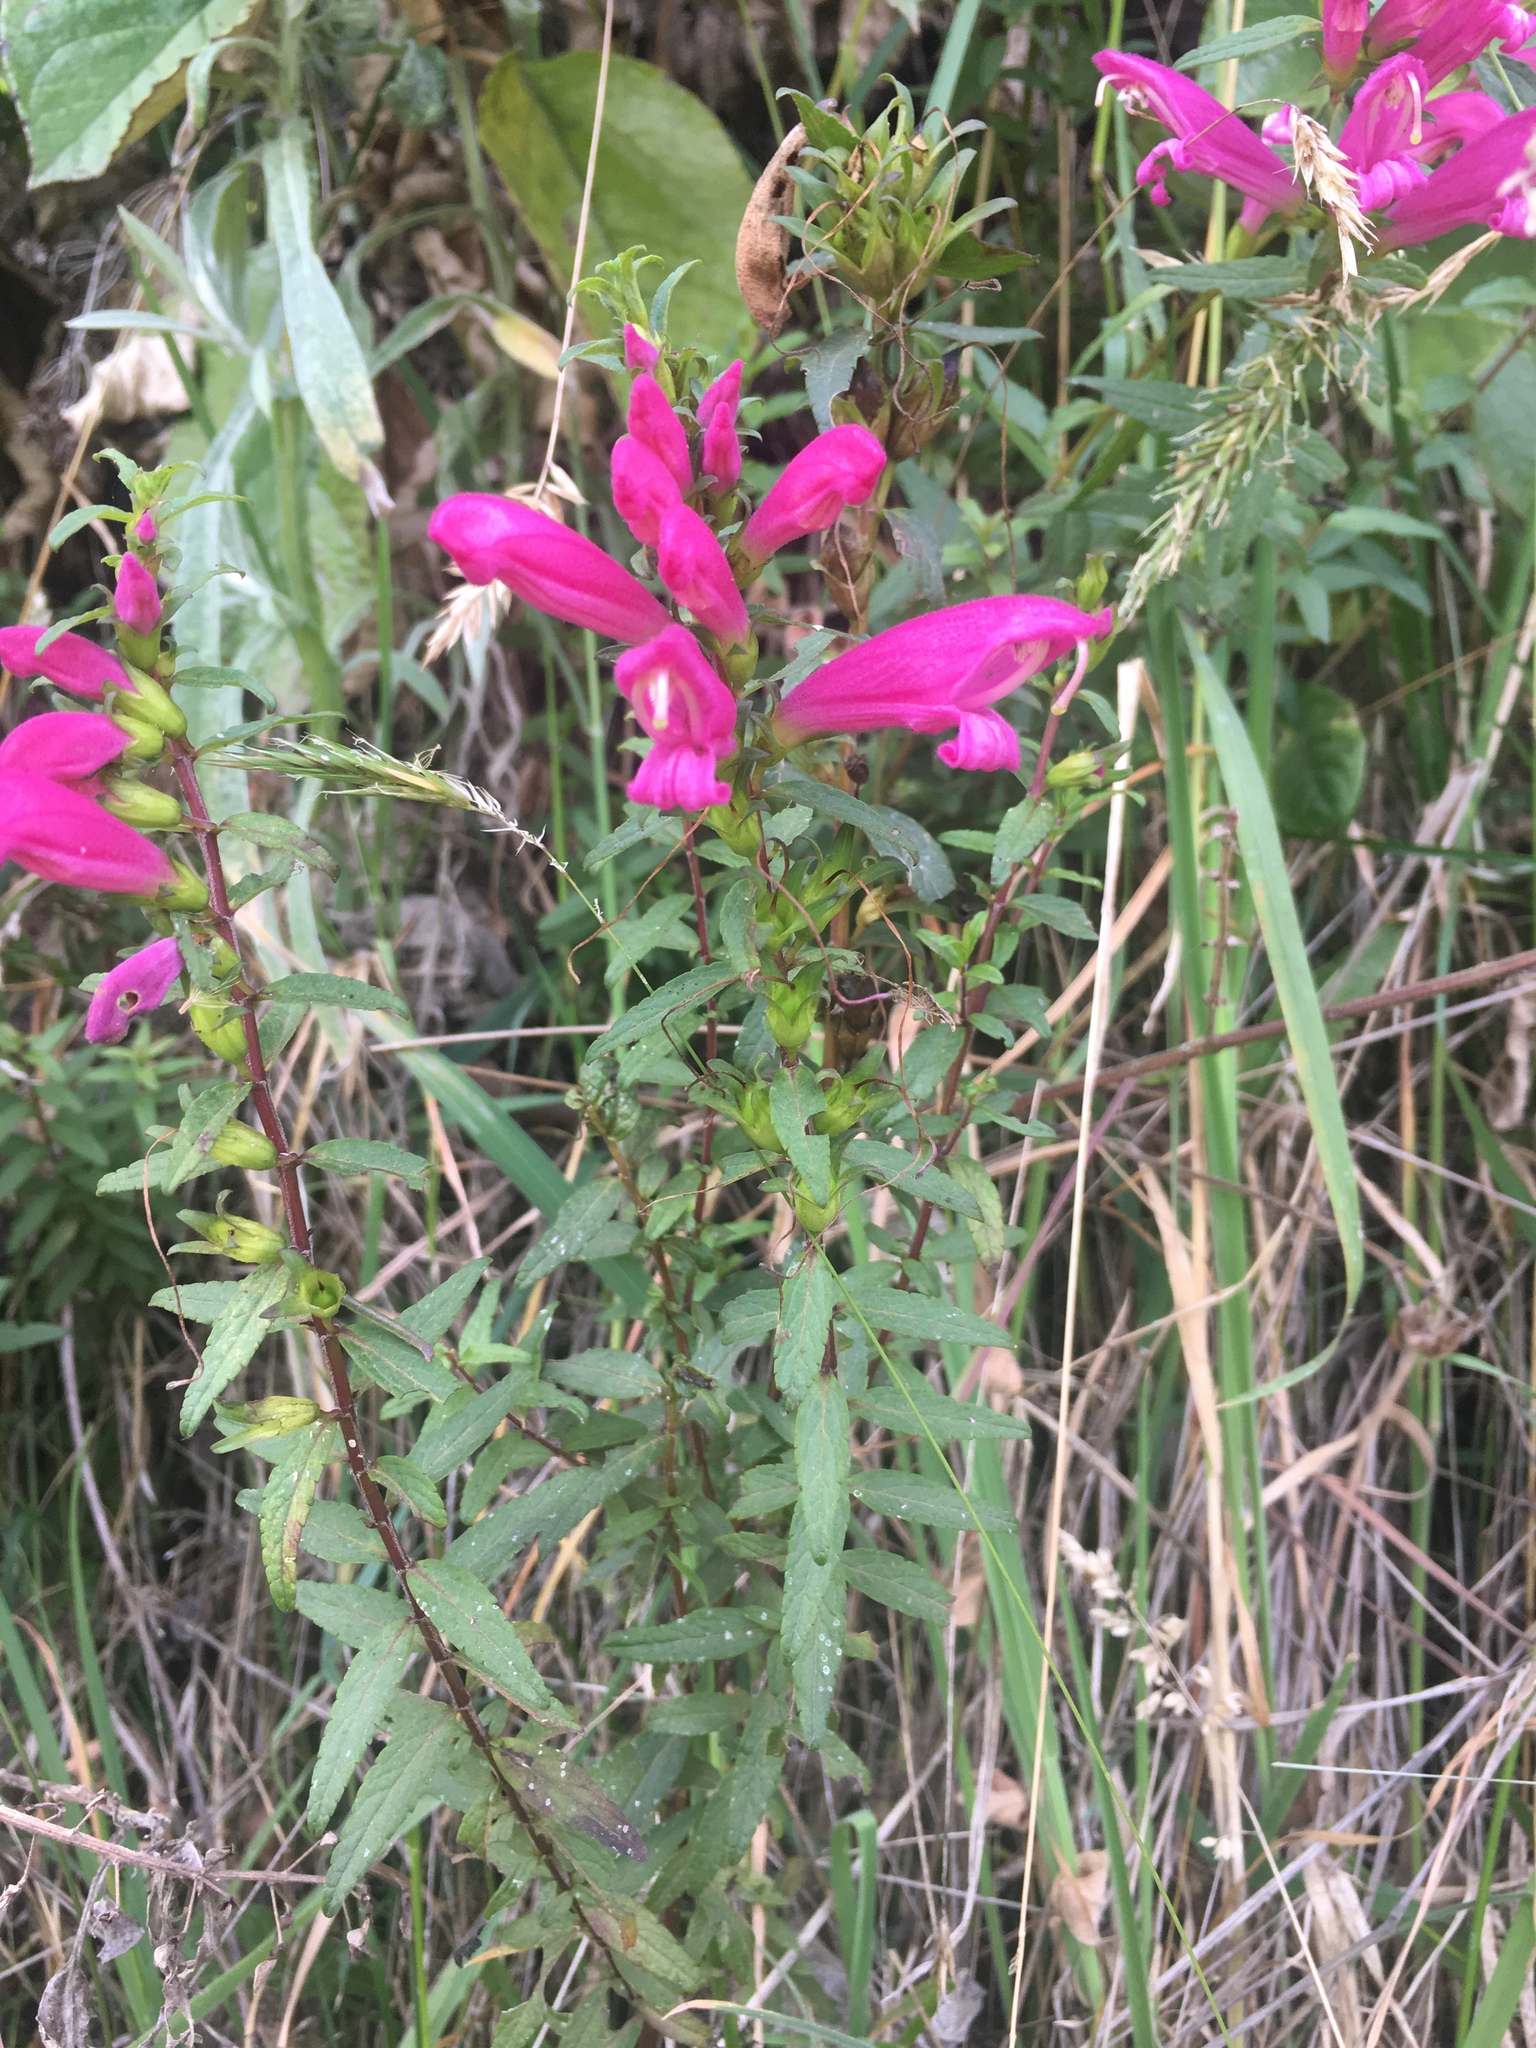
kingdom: Plantae
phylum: Tracheophyta
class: Magnoliopsida
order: Lamiales
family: Orobanchaceae
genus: Lamourouxia
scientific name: Lamourouxia virgata
